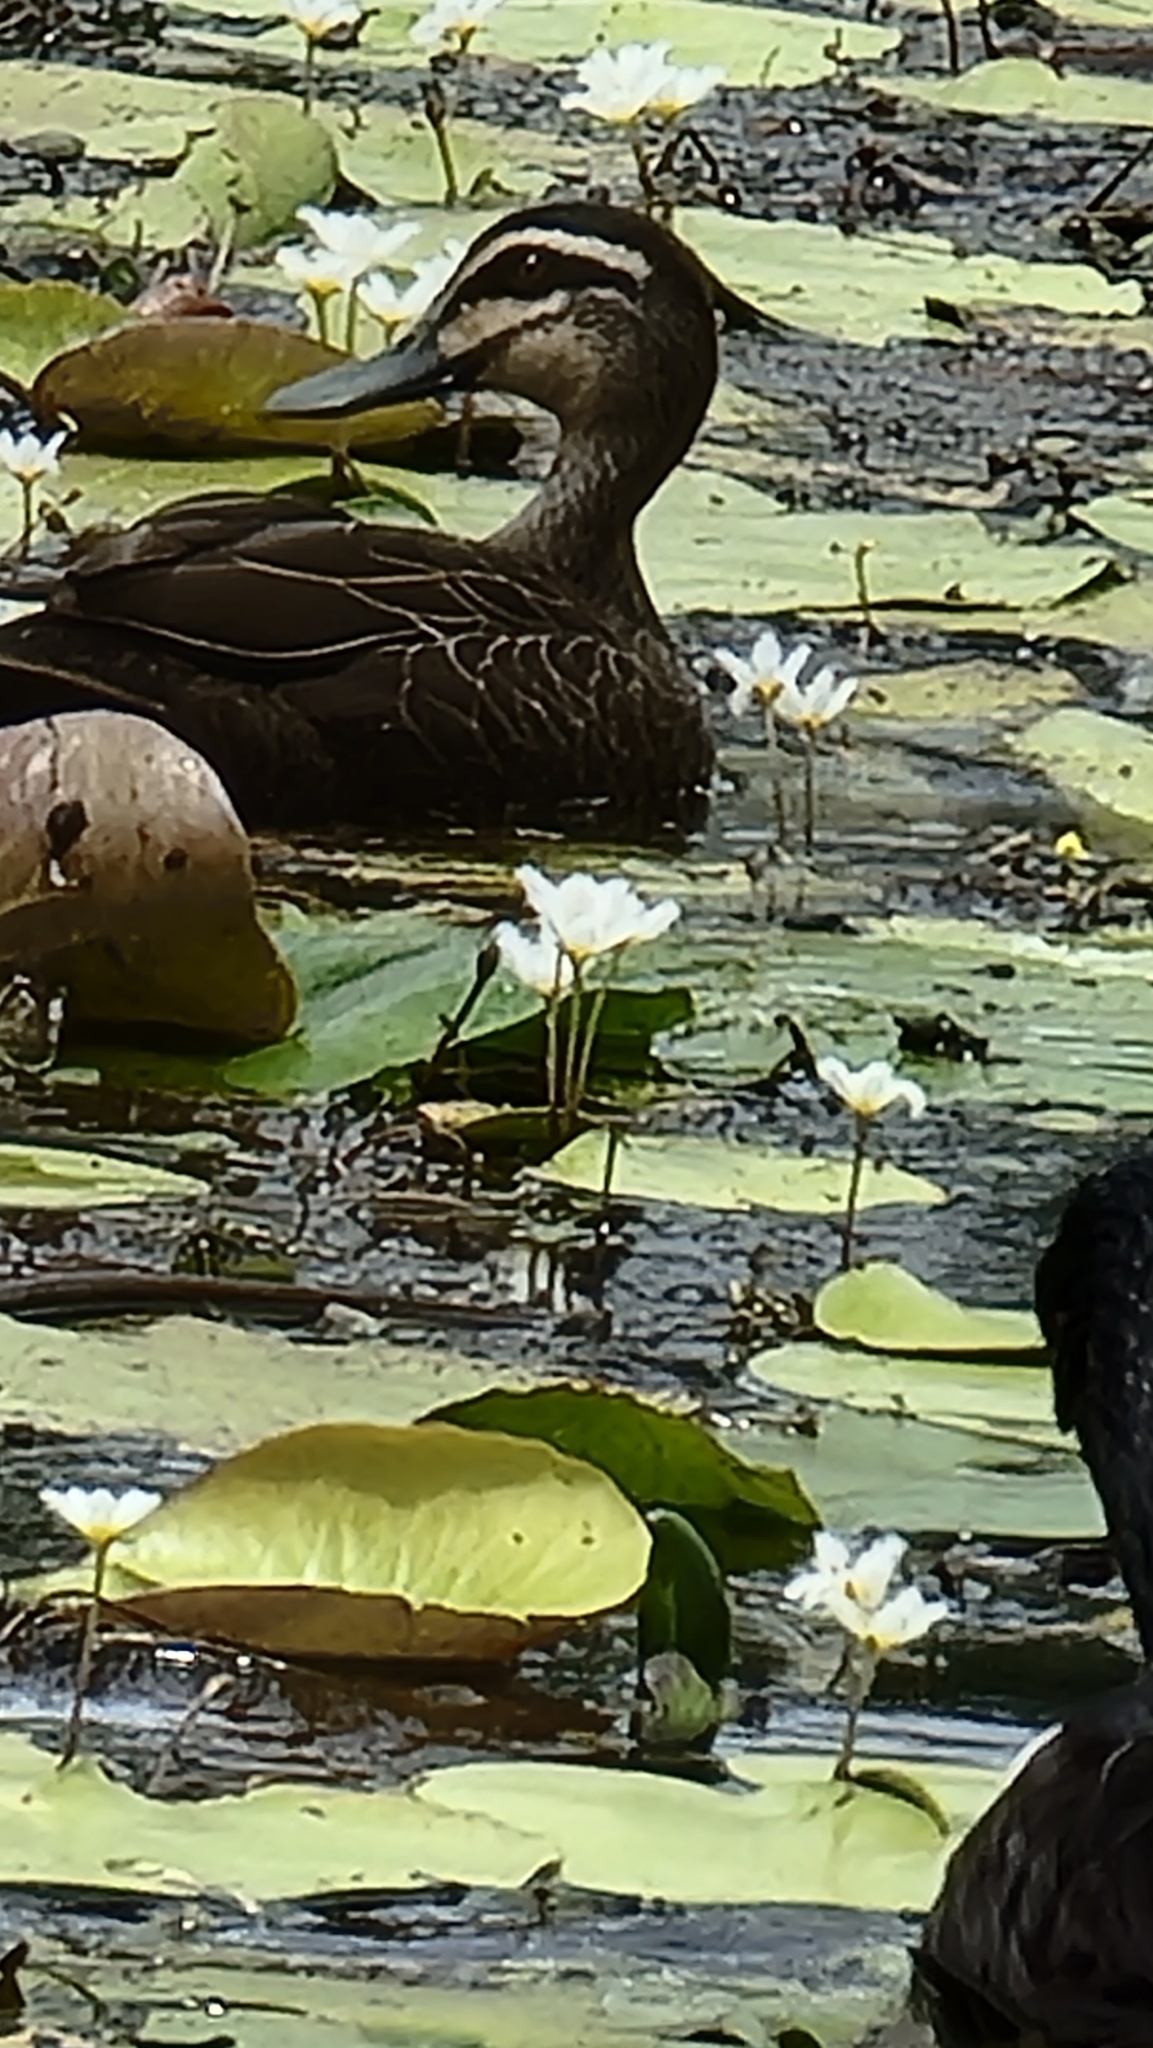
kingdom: Animalia
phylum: Chordata
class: Aves
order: Anseriformes
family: Anatidae
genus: Anas
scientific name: Anas
